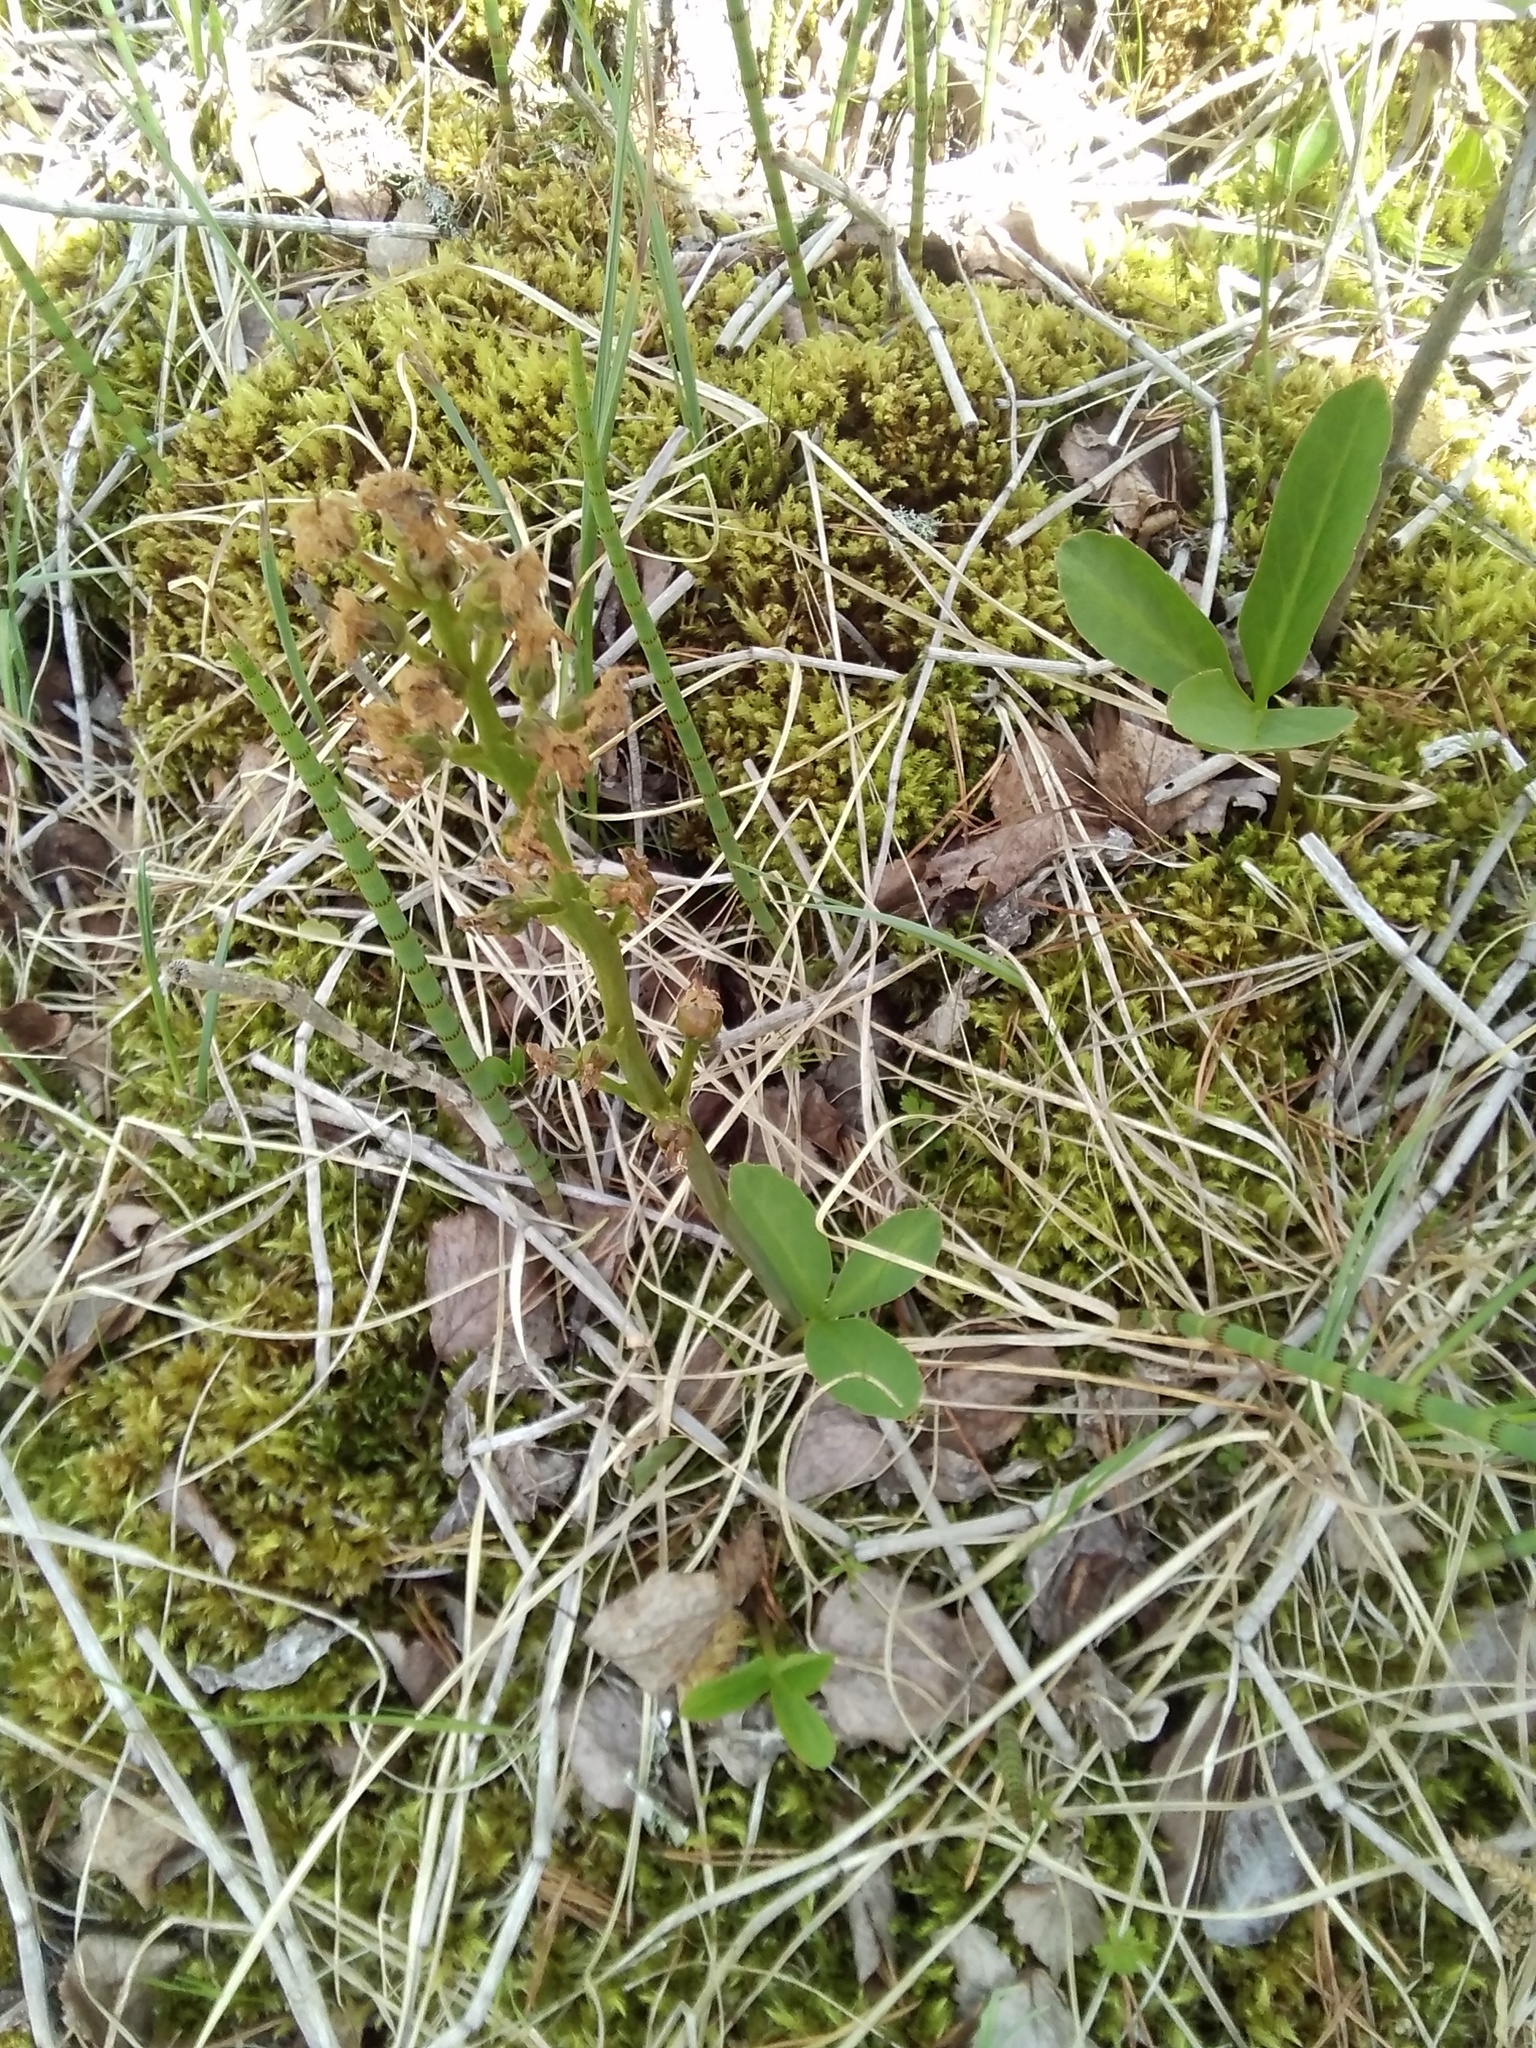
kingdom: Plantae
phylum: Tracheophyta
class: Magnoliopsida
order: Asterales
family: Menyanthaceae
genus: Menyanthes
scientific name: Menyanthes trifoliata
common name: Bogbean
